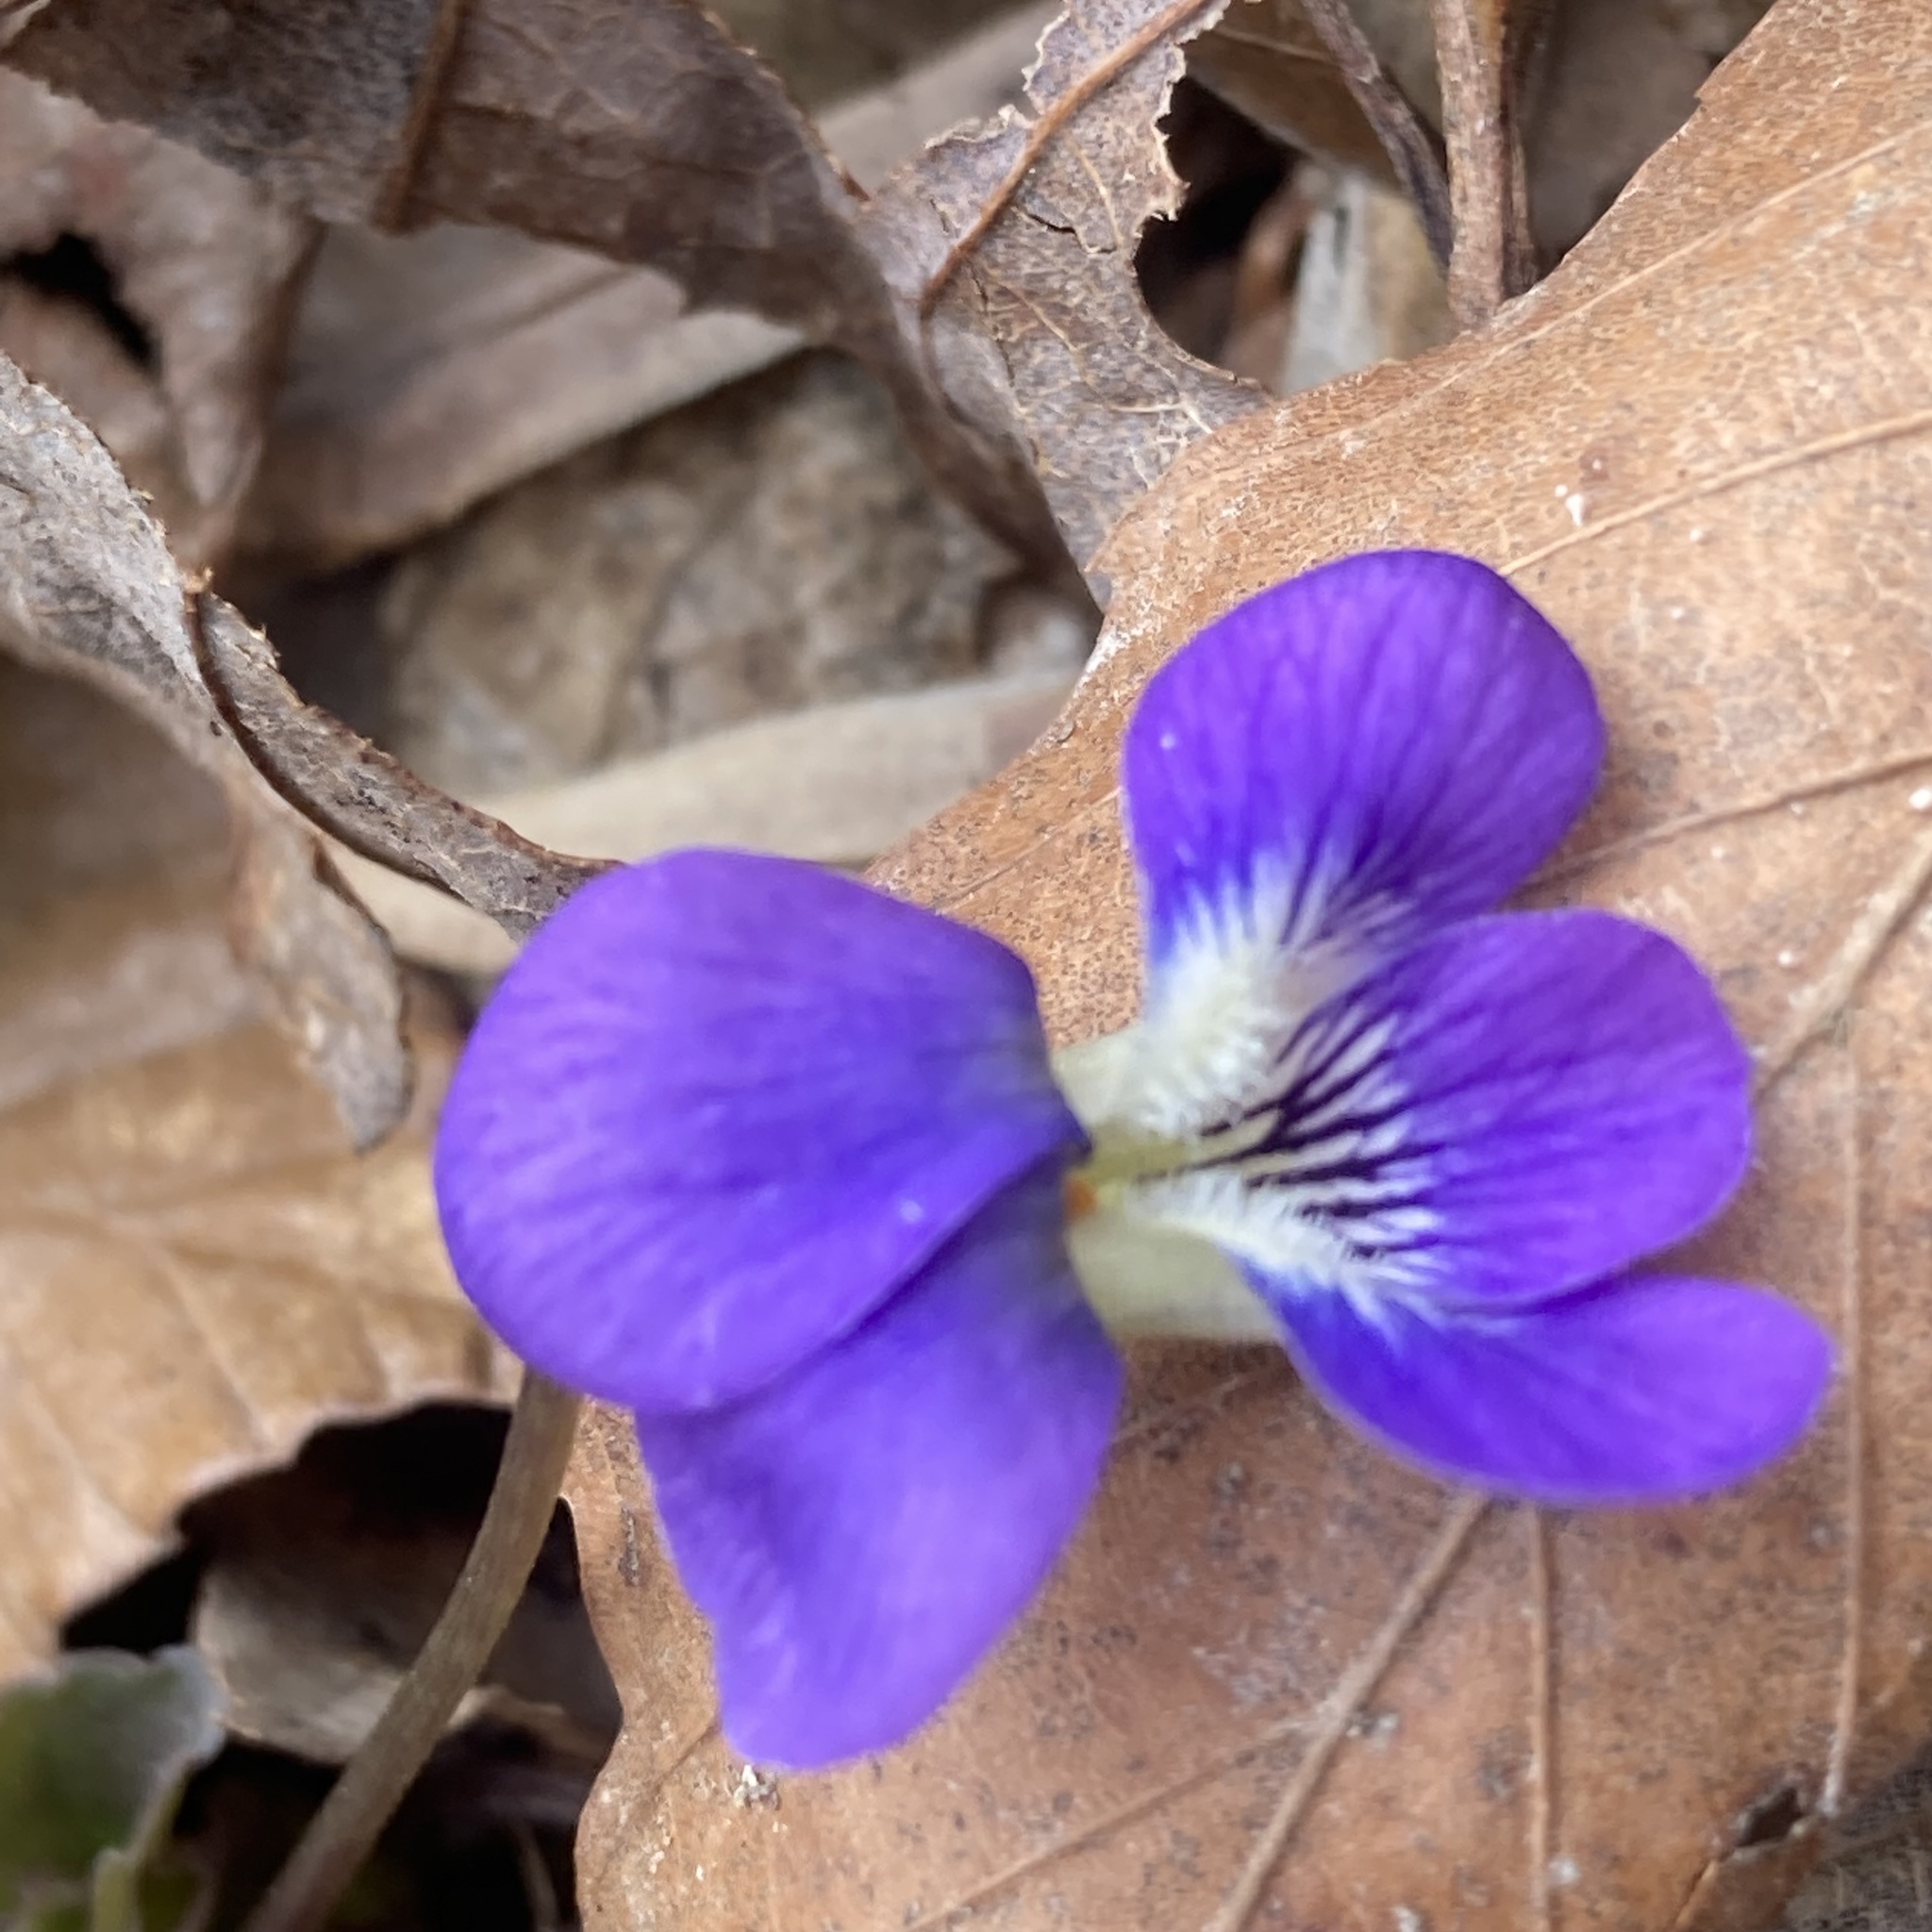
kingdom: Plantae
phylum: Tracheophyta
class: Magnoliopsida
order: Malpighiales
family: Violaceae
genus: Viola
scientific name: Viola sororia
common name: Dooryard violet
